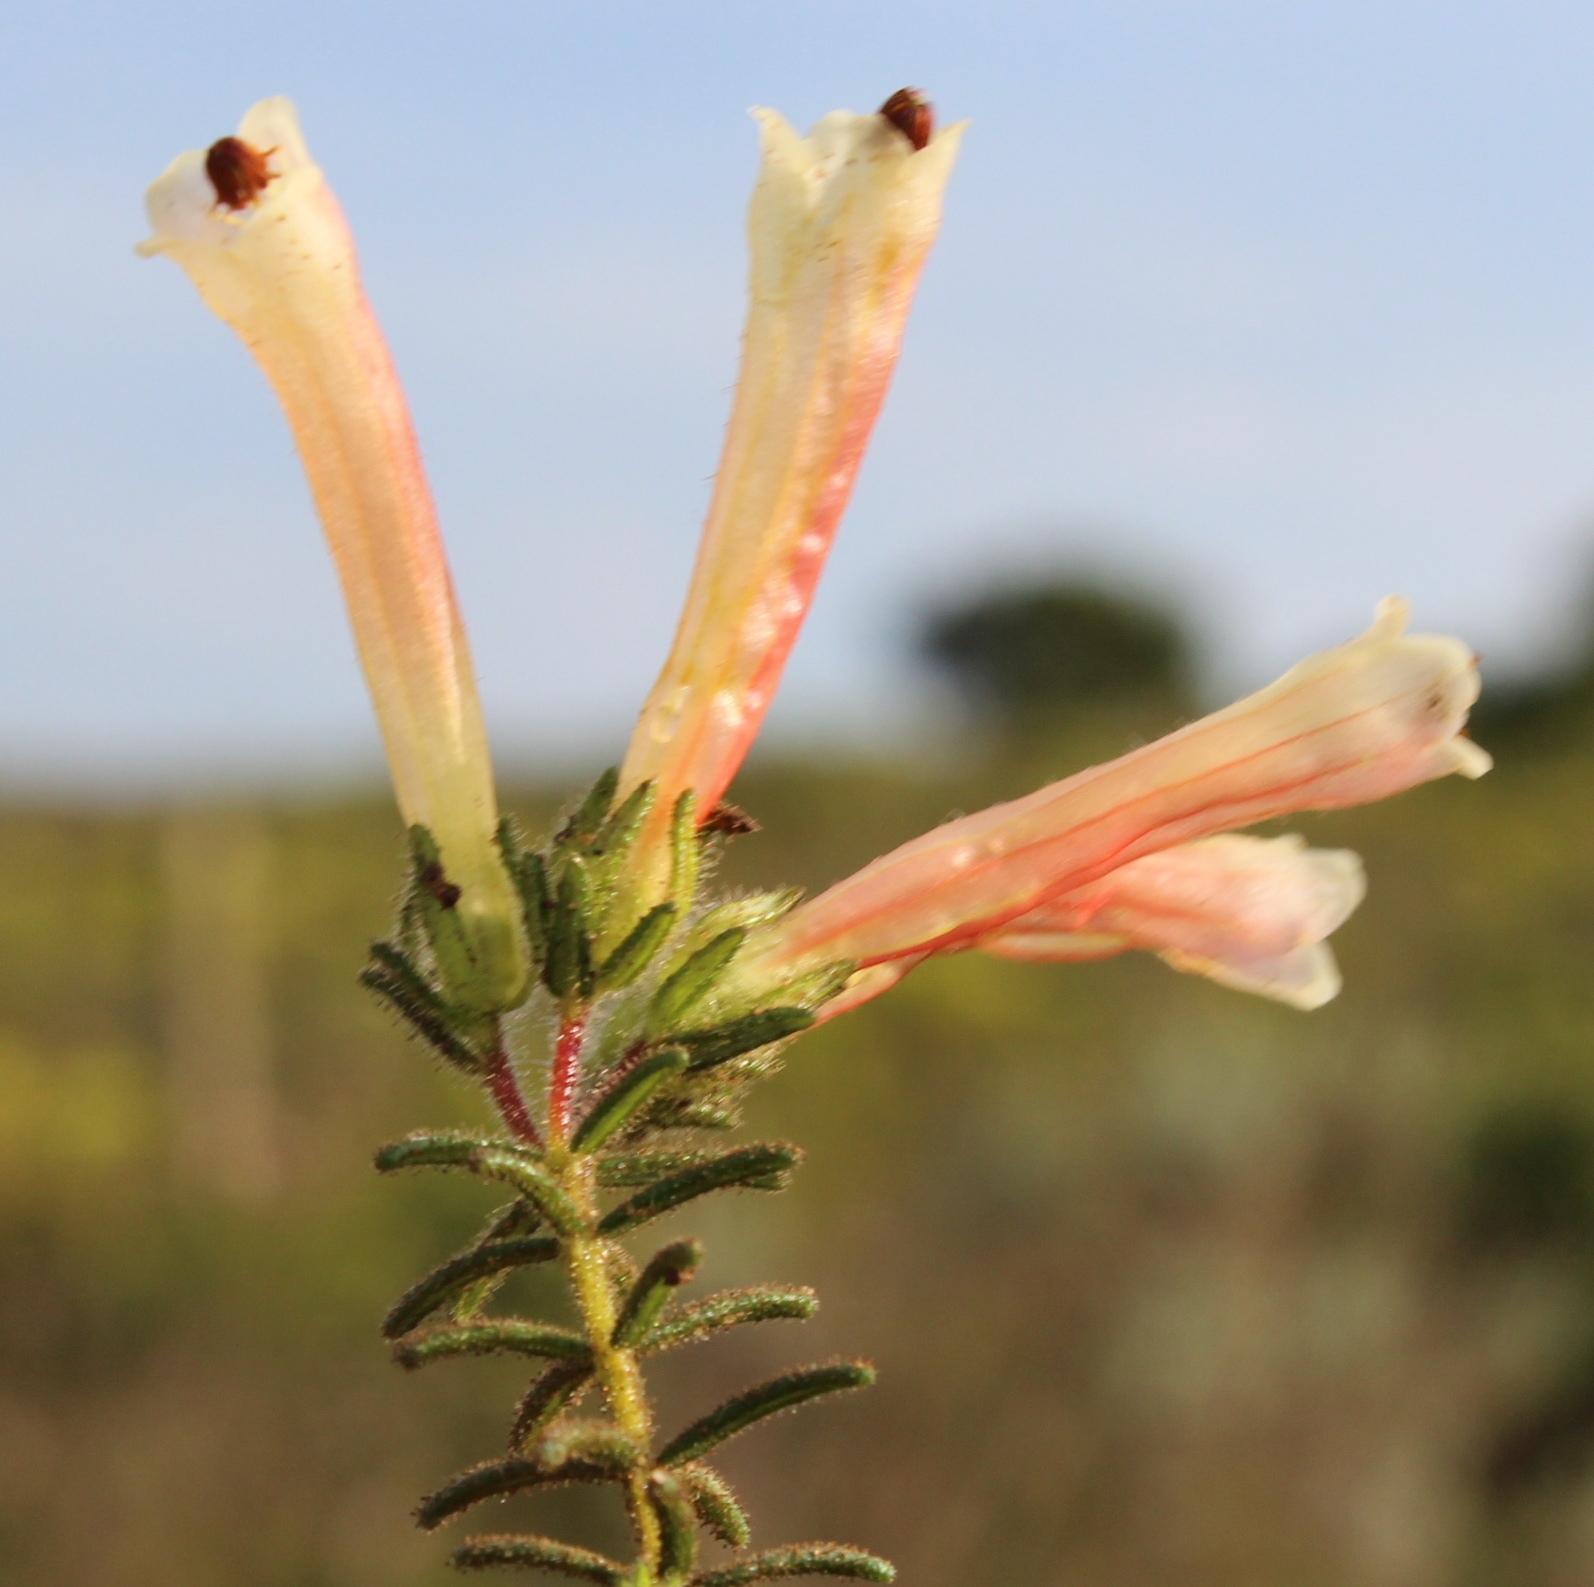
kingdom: Plantae
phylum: Tracheophyta
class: Magnoliopsida
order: Ericales
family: Ericaceae
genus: Erica
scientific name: Erica glandulosa
